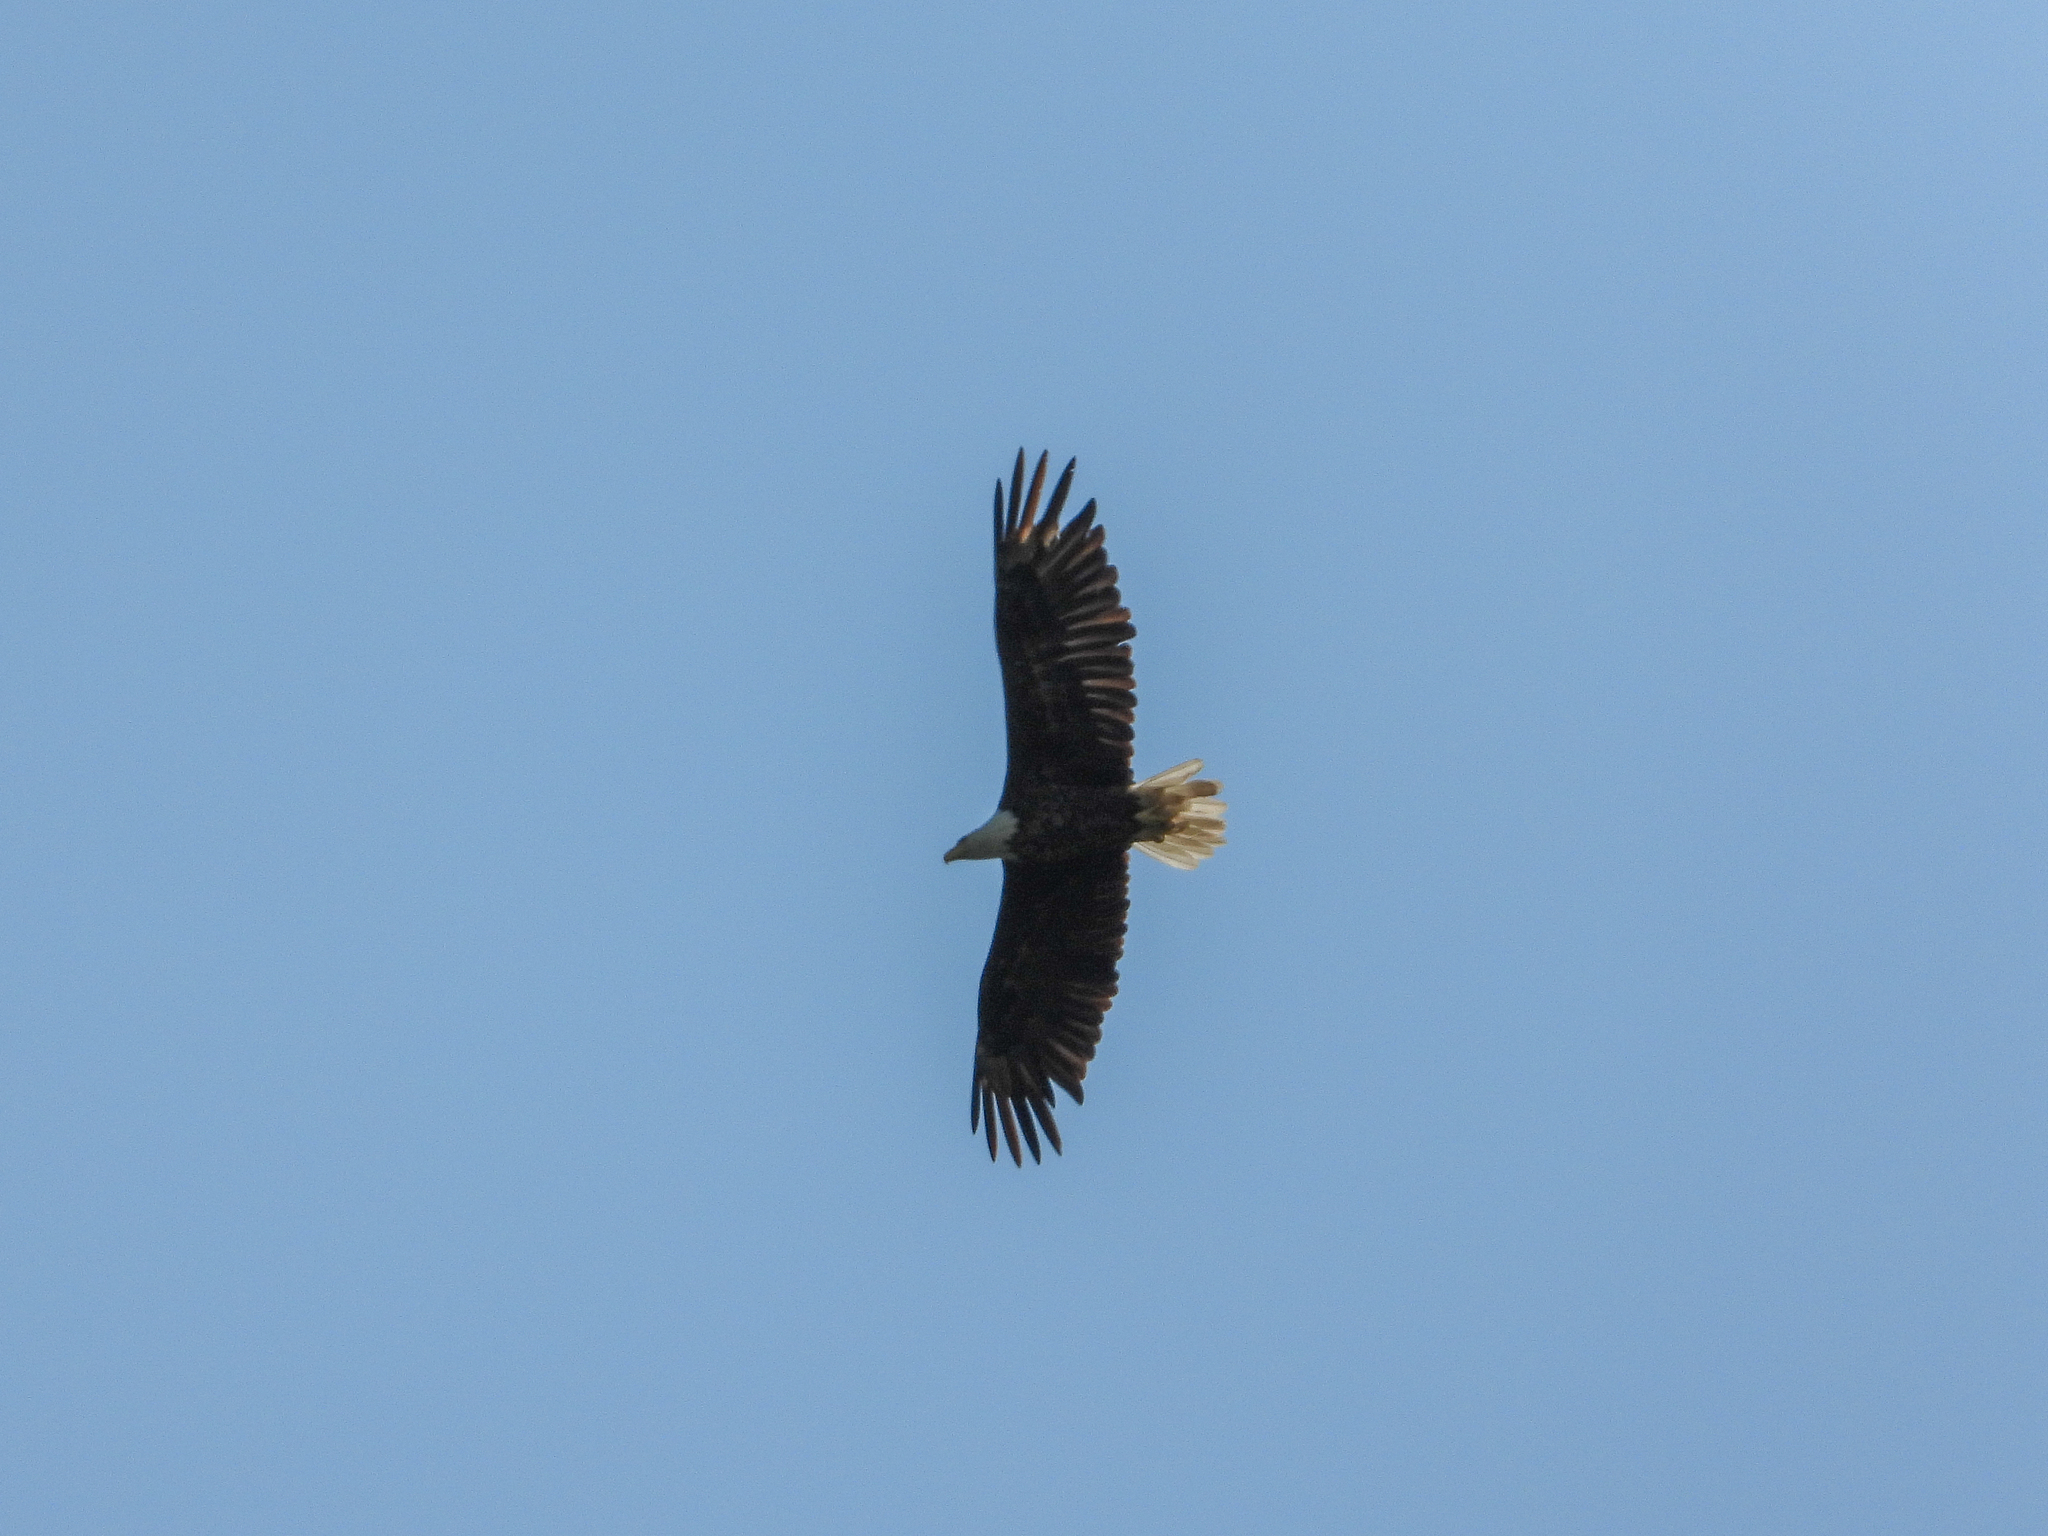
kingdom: Animalia
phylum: Chordata
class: Aves
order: Accipitriformes
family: Accipitridae
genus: Haliaeetus
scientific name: Haliaeetus leucocephalus
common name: Bald eagle
